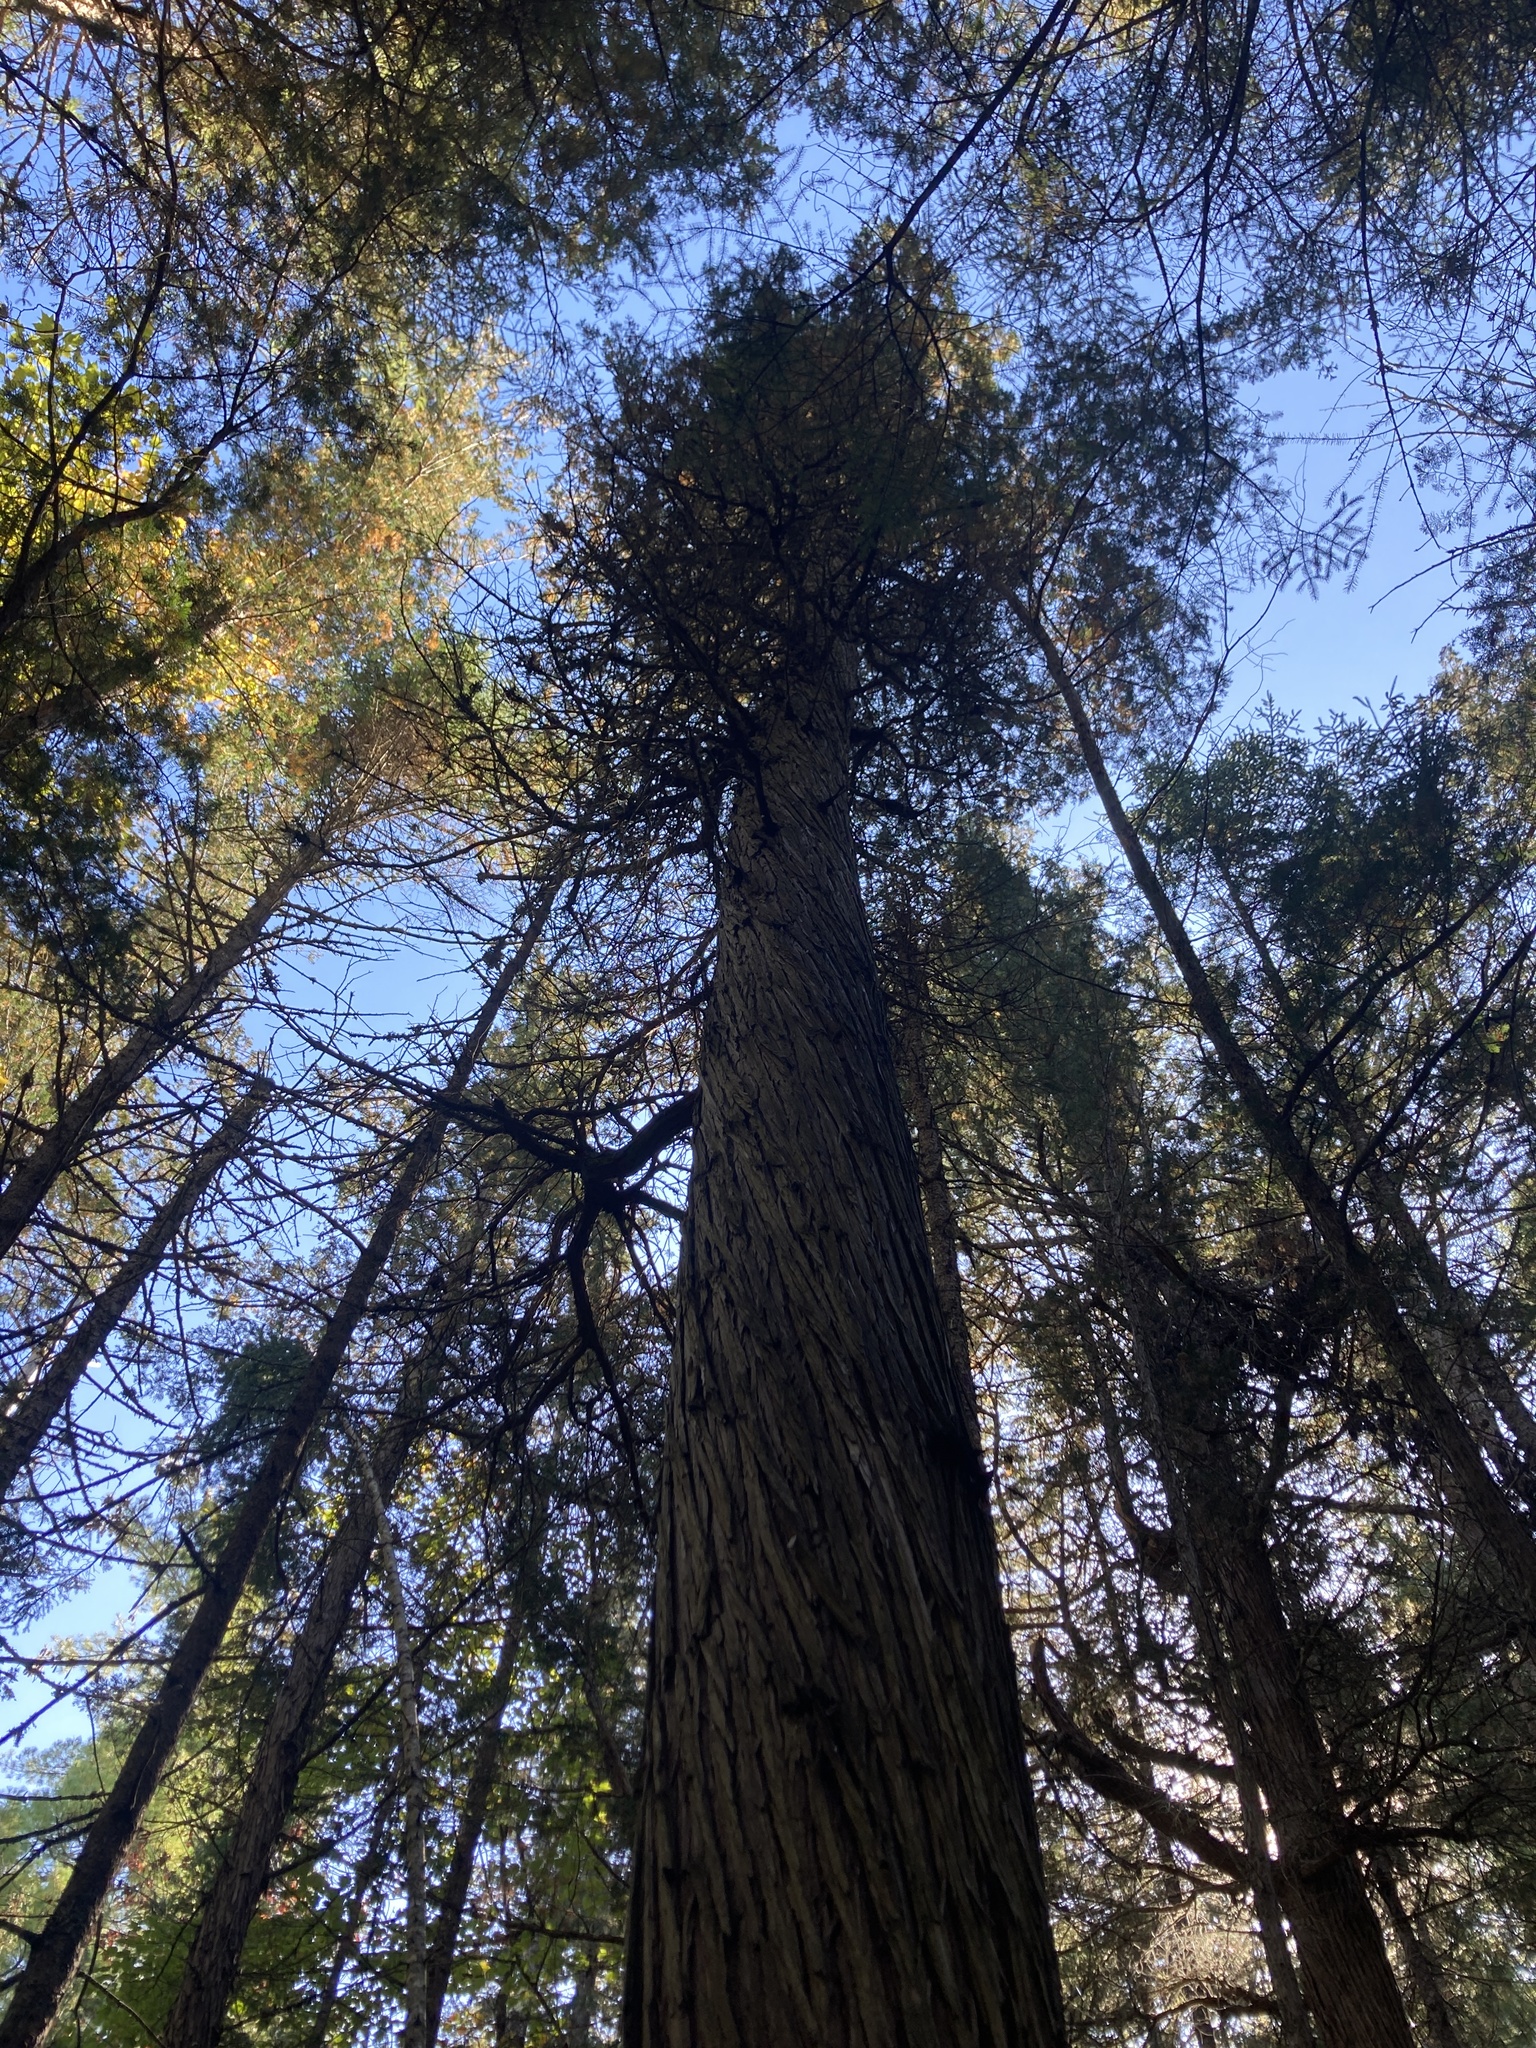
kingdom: Plantae
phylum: Tracheophyta
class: Pinopsida
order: Pinales
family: Cupressaceae
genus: Chamaecyparis
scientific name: Chamaecyparis thyoides
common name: Atlantic white cedar
